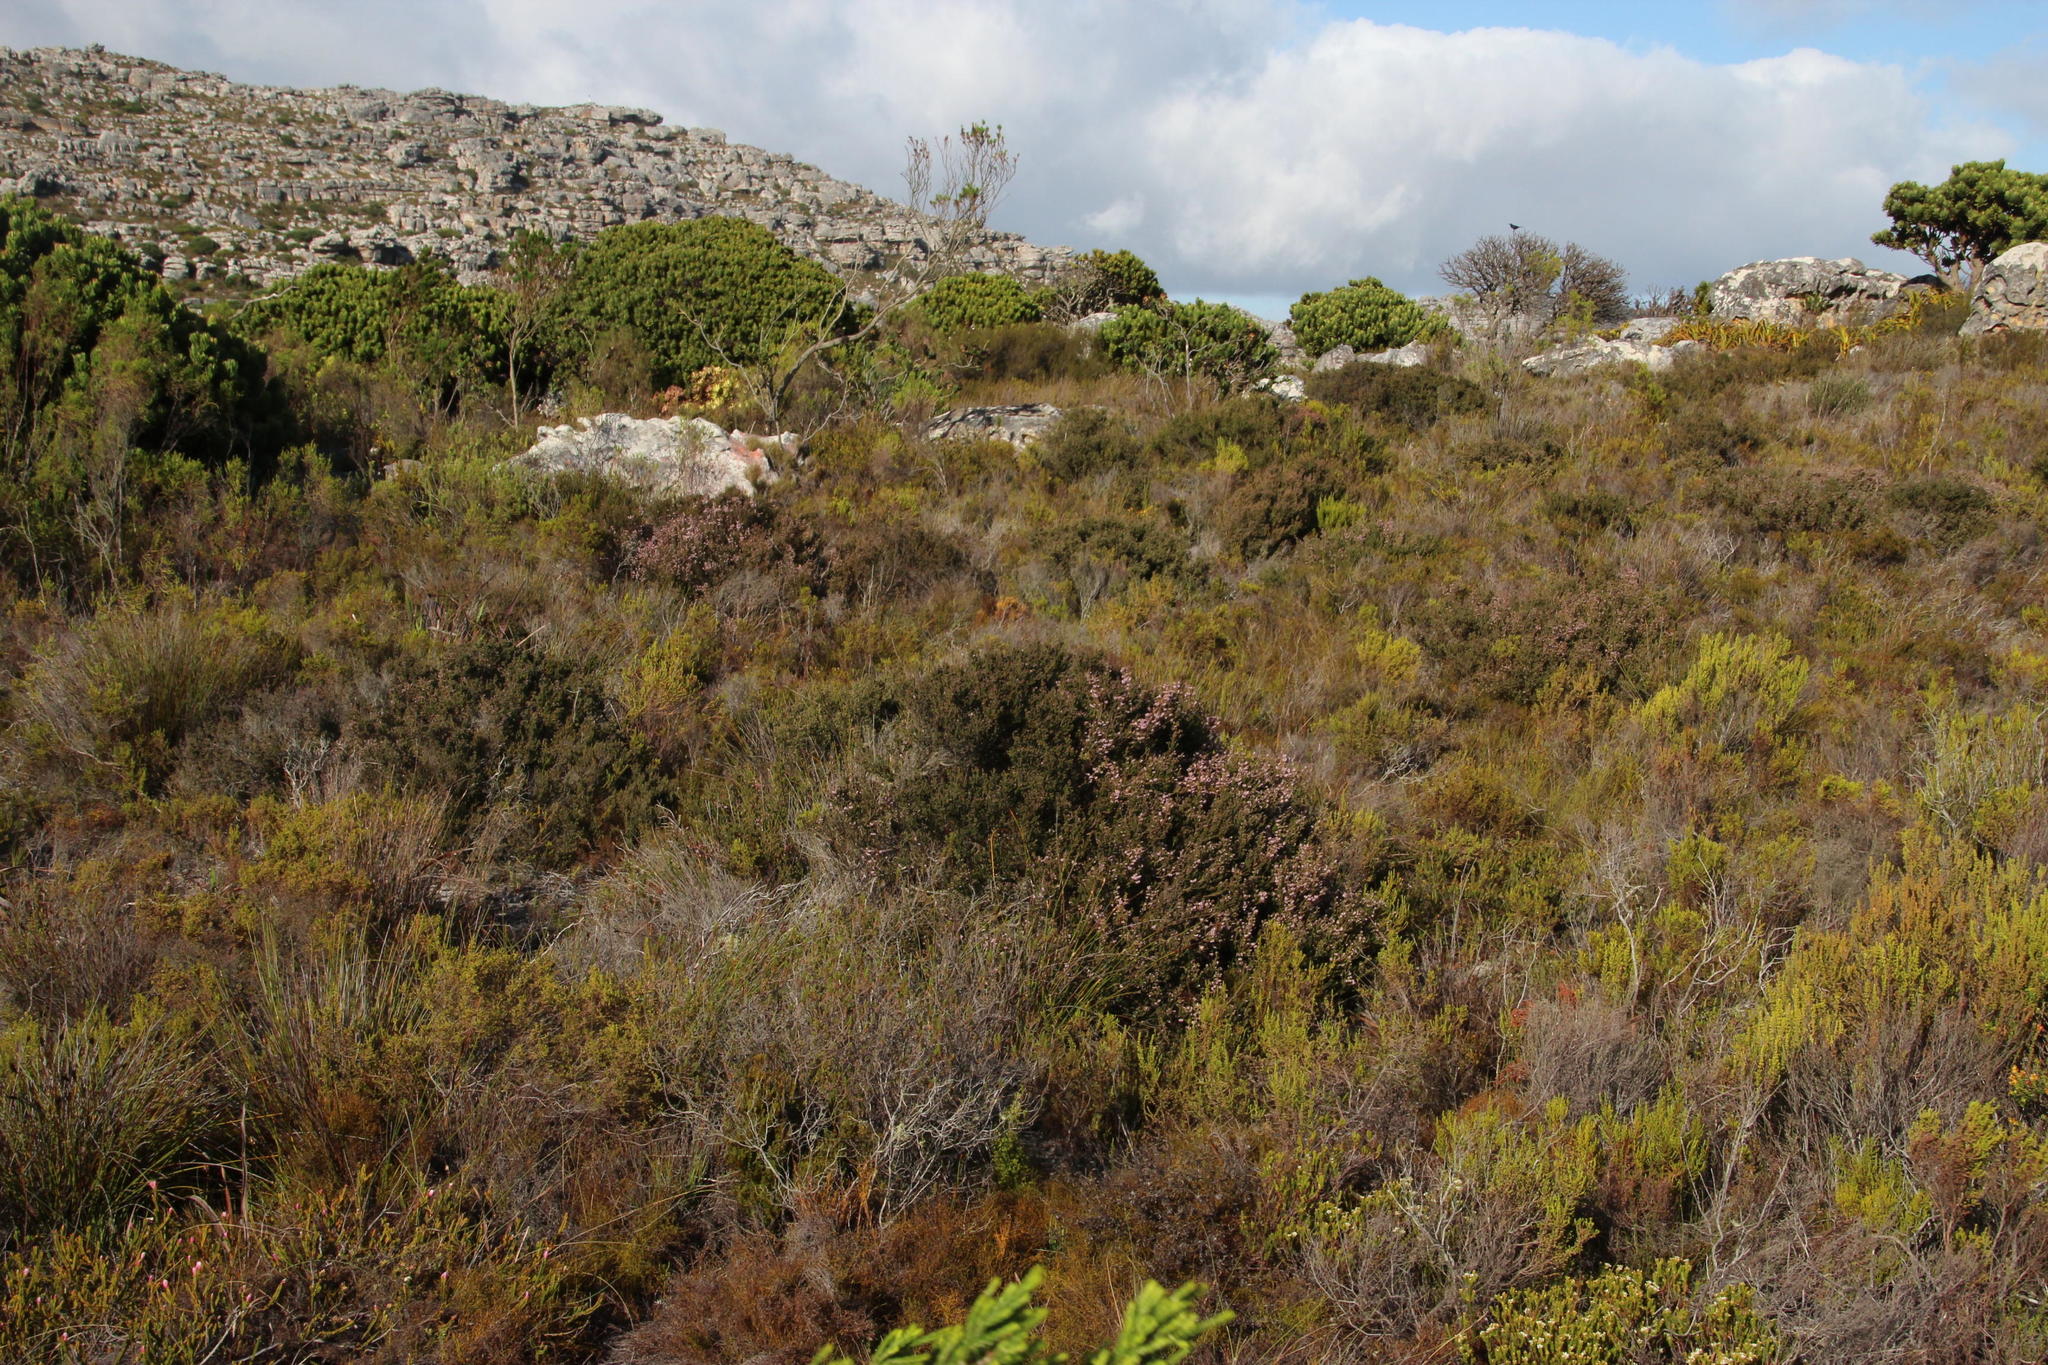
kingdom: Plantae
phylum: Tracheophyta
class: Magnoliopsida
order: Ericales
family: Ericaceae
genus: Erica
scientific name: Erica ericoides
